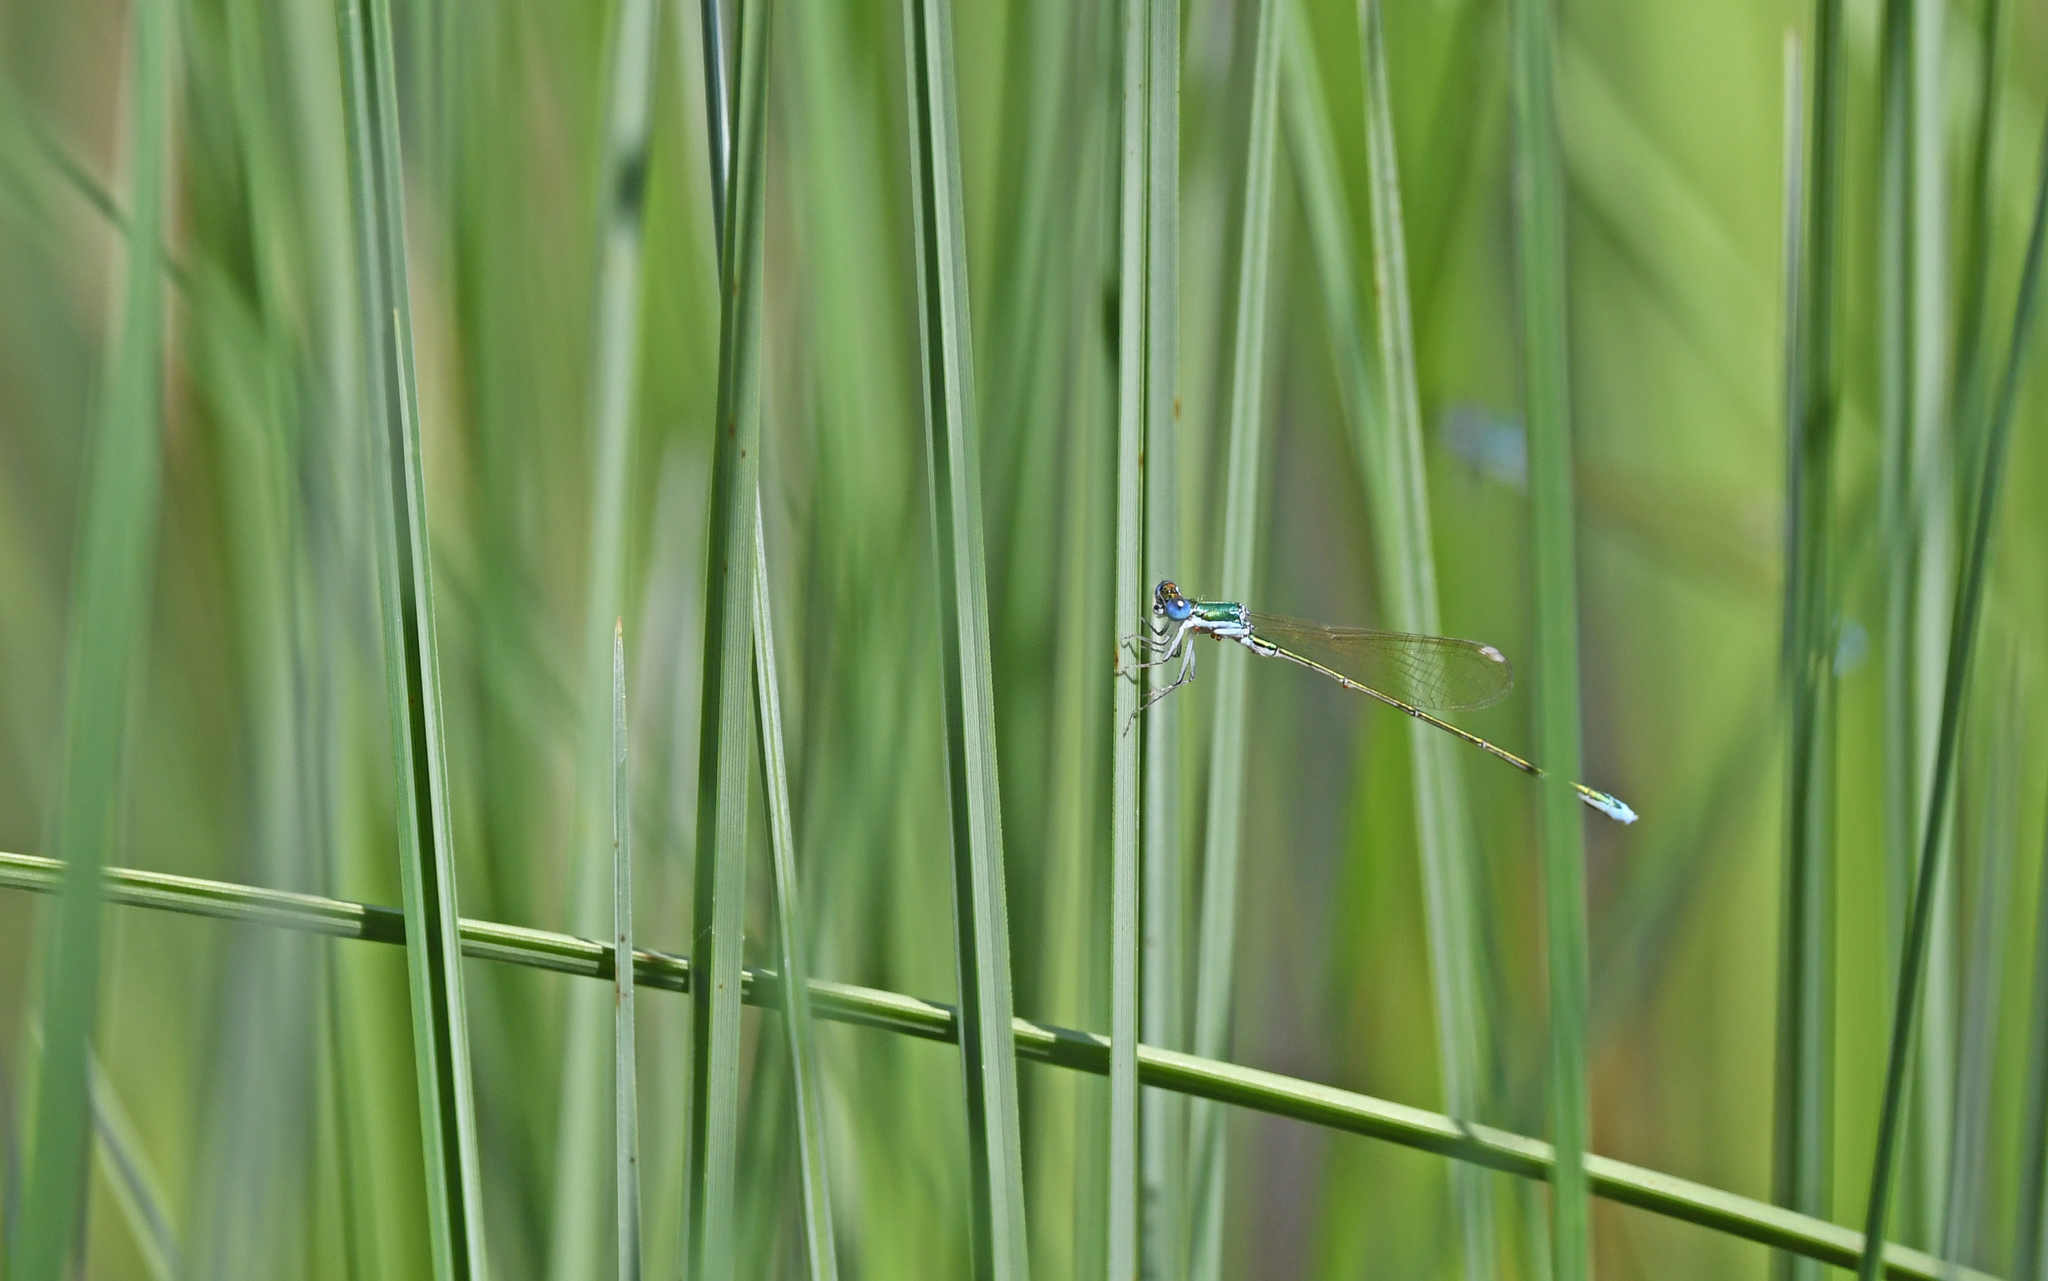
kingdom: Animalia
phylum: Arthropoda
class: Insecta
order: Odonata
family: Coenagrionidae
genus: Nehalennia
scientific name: Nehalennia speciosa
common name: Sedgling
